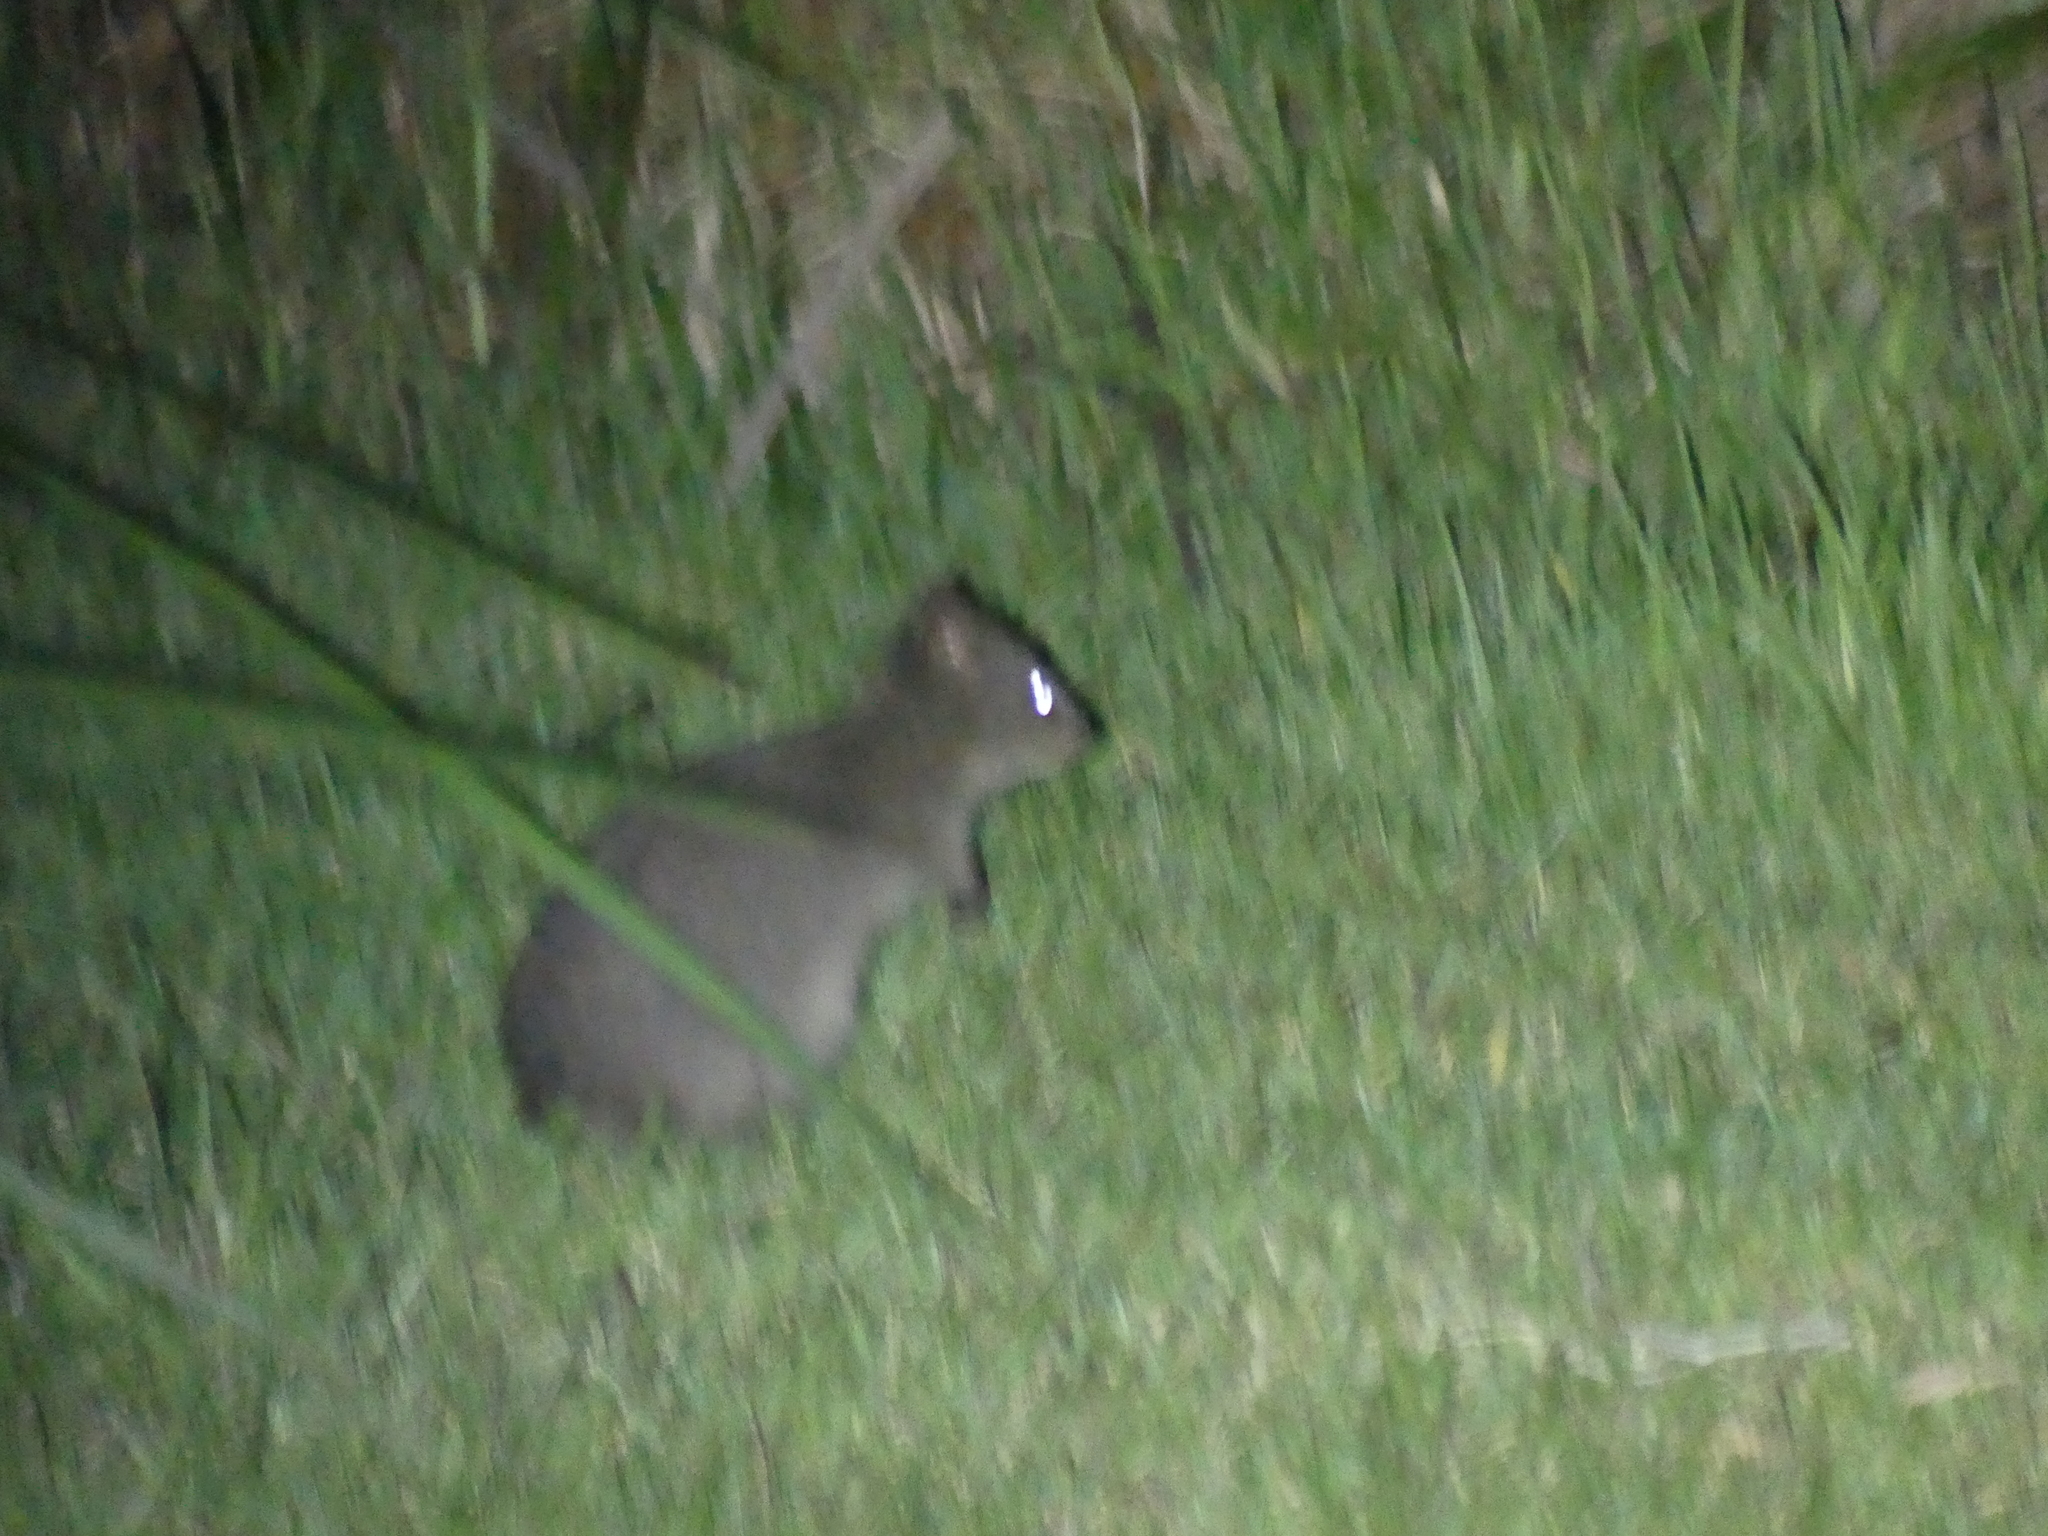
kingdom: Animalia
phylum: Chordata
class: Mammalia
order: Diprotodontia
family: Macropodidae
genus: Setonix
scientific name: Setonix brachyurus
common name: Quokka
